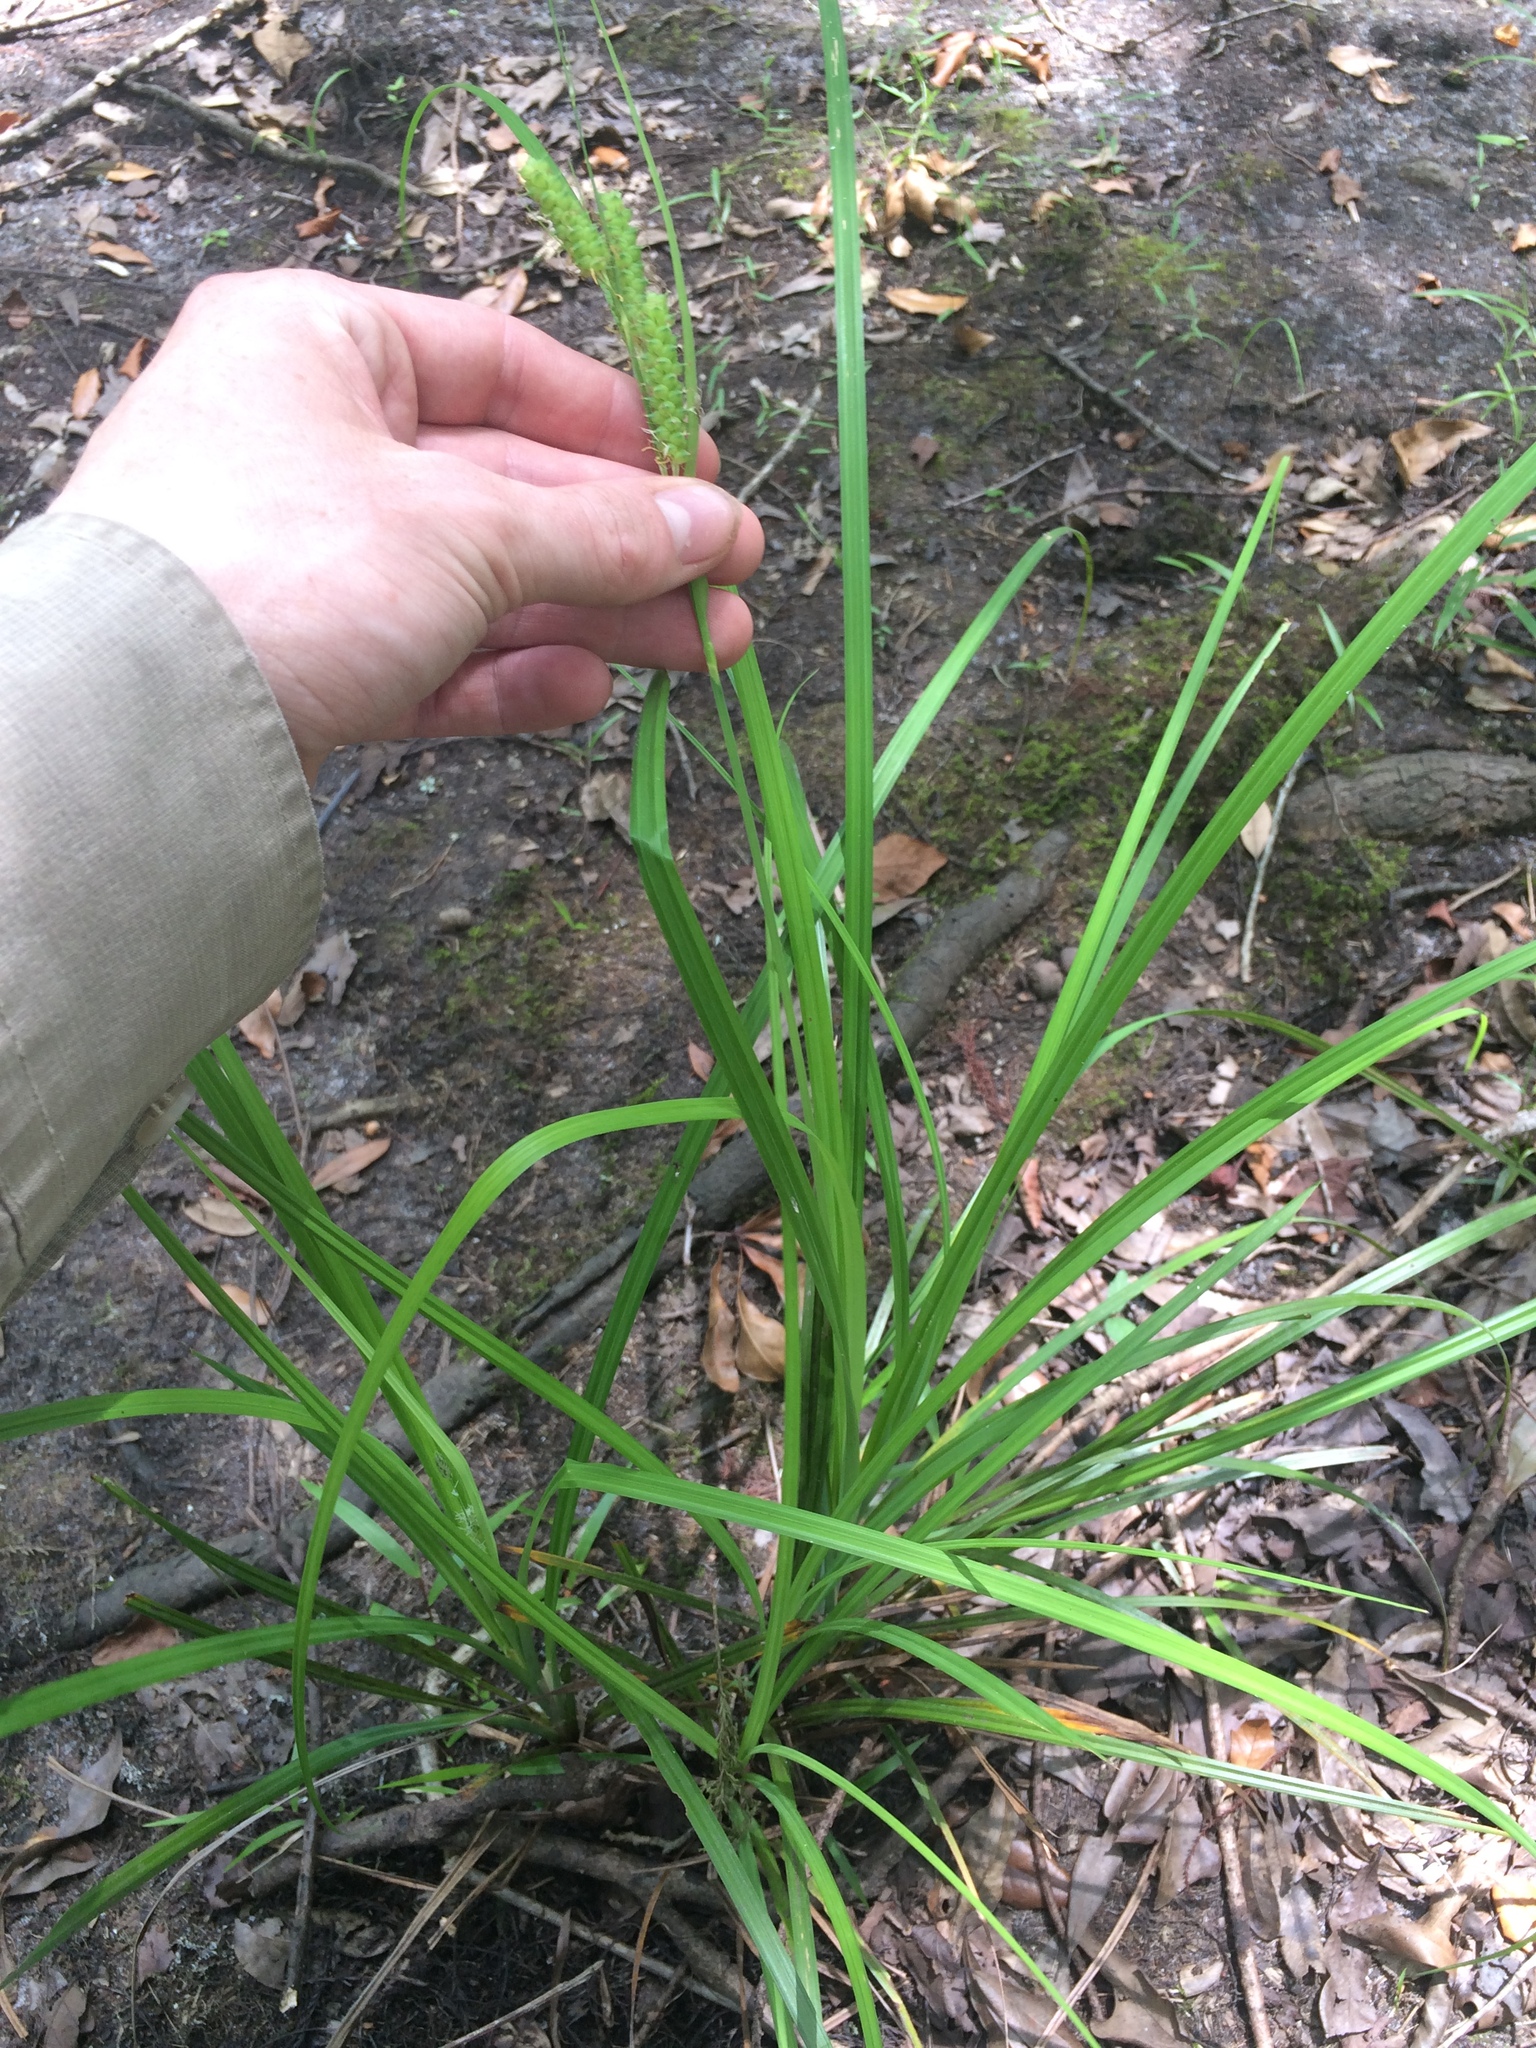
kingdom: Plantae
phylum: Tracheophyta
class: Liliopsida
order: Poales
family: Cyperaceae
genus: Carex
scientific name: Carex joorii
